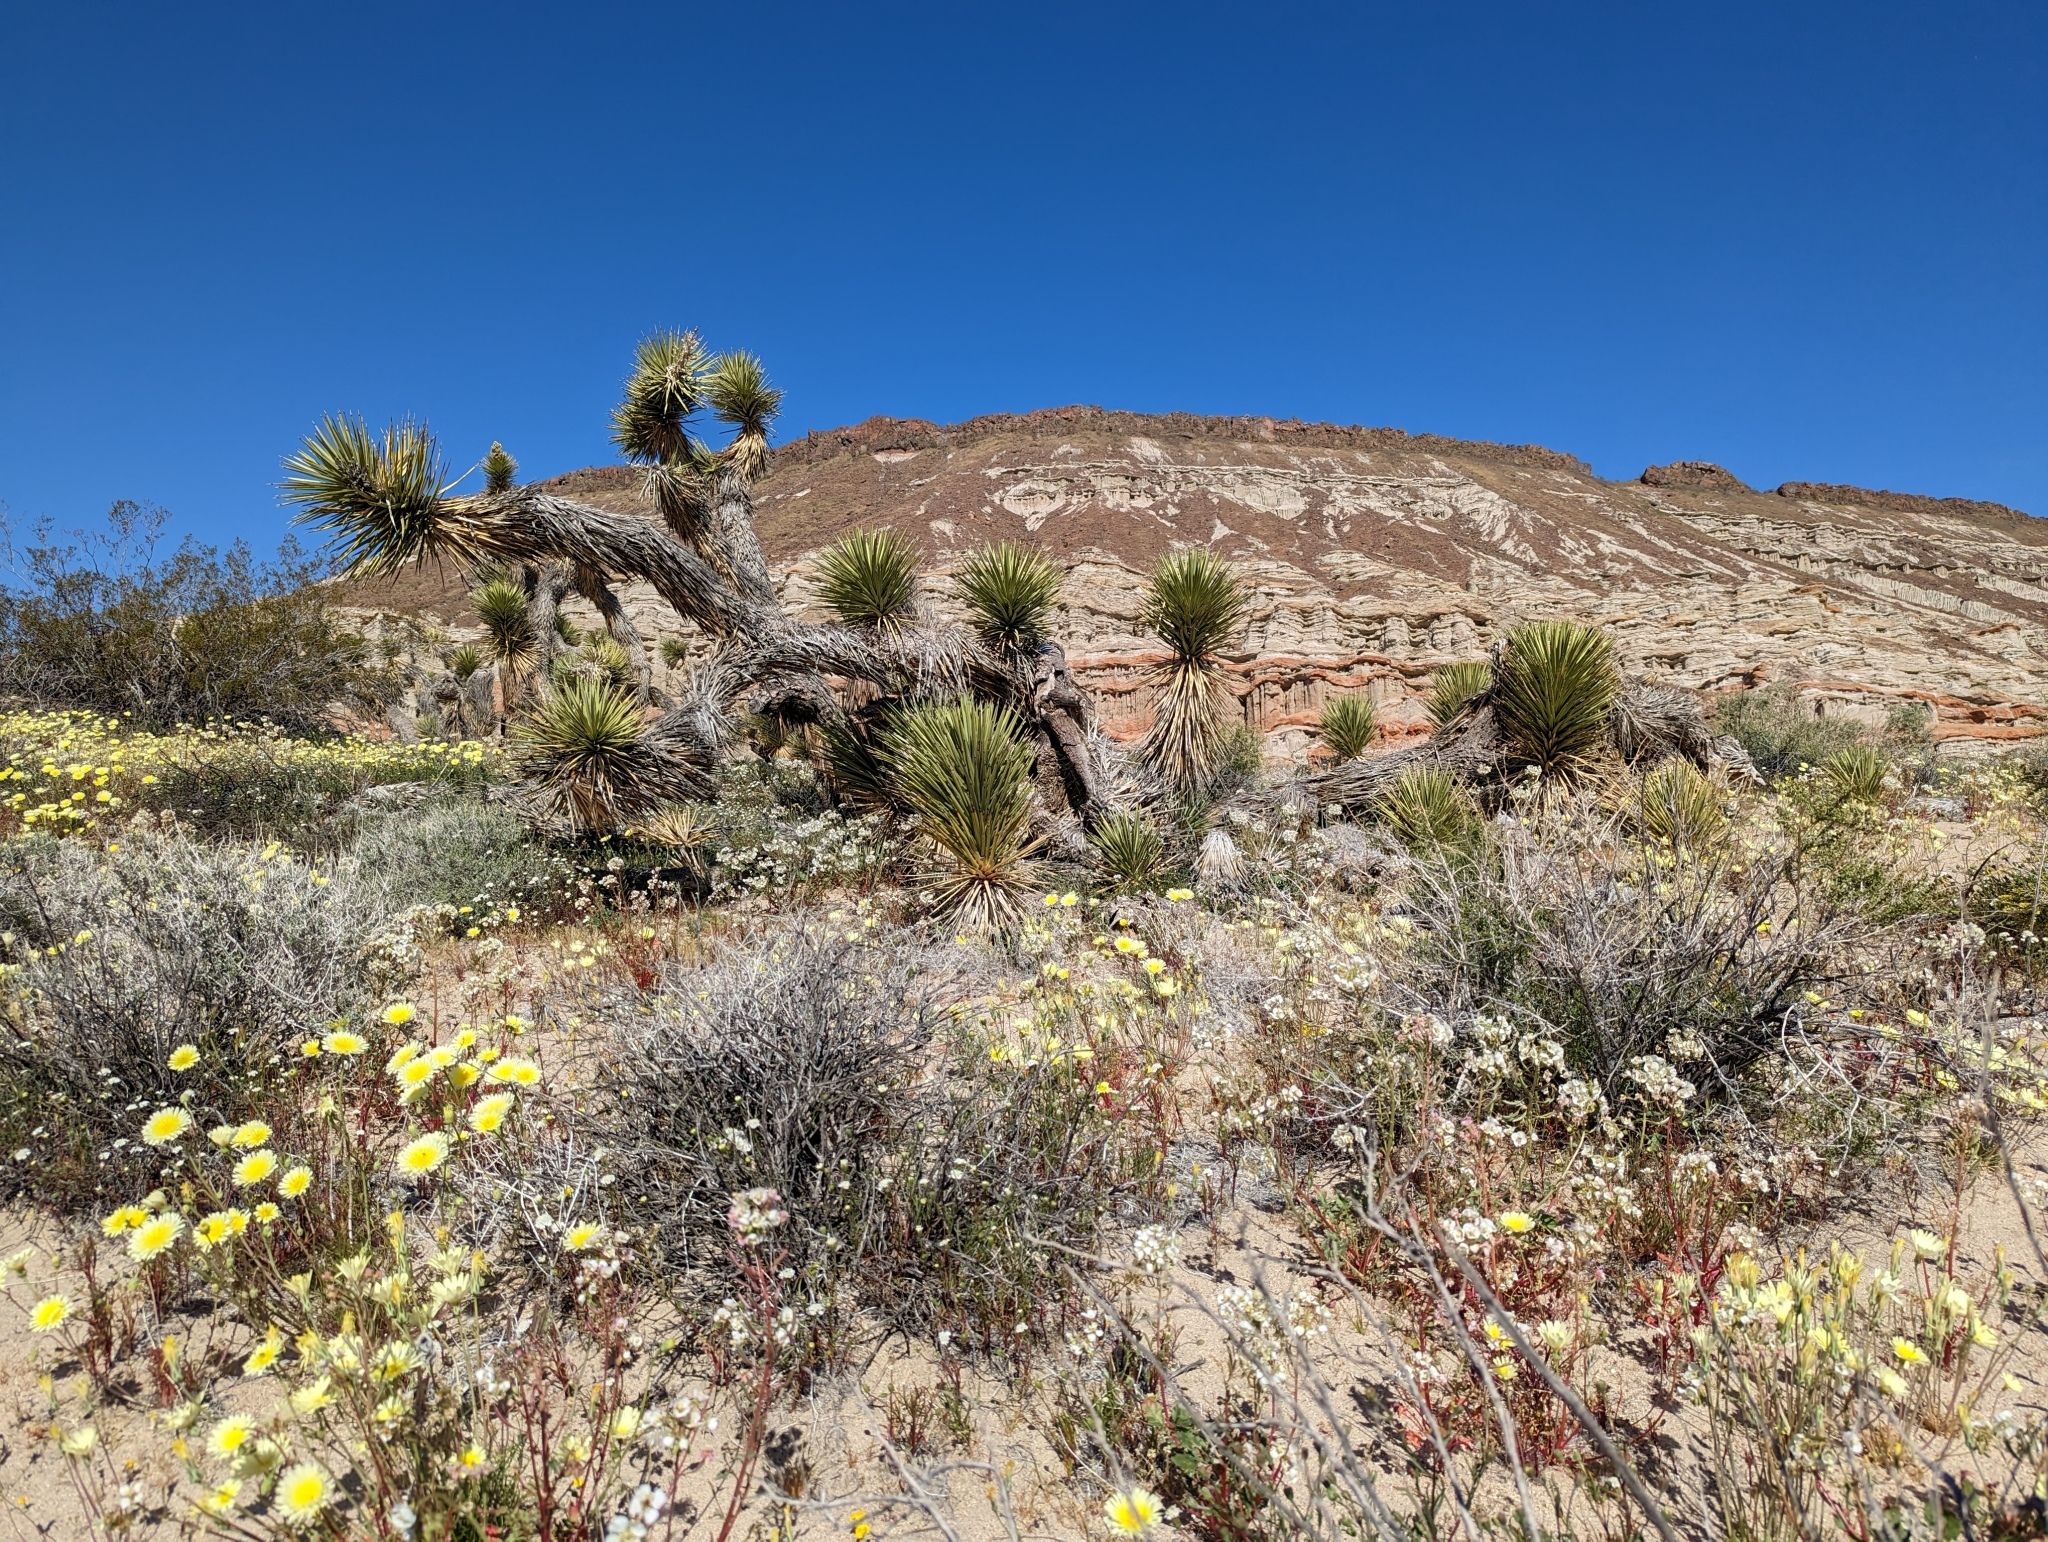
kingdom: Plantae
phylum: Tracheophyta
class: Liliopsida
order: Asparagales
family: Asparagaceae
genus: Yucca
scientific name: Yucca brevifolia
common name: Joshua tree
